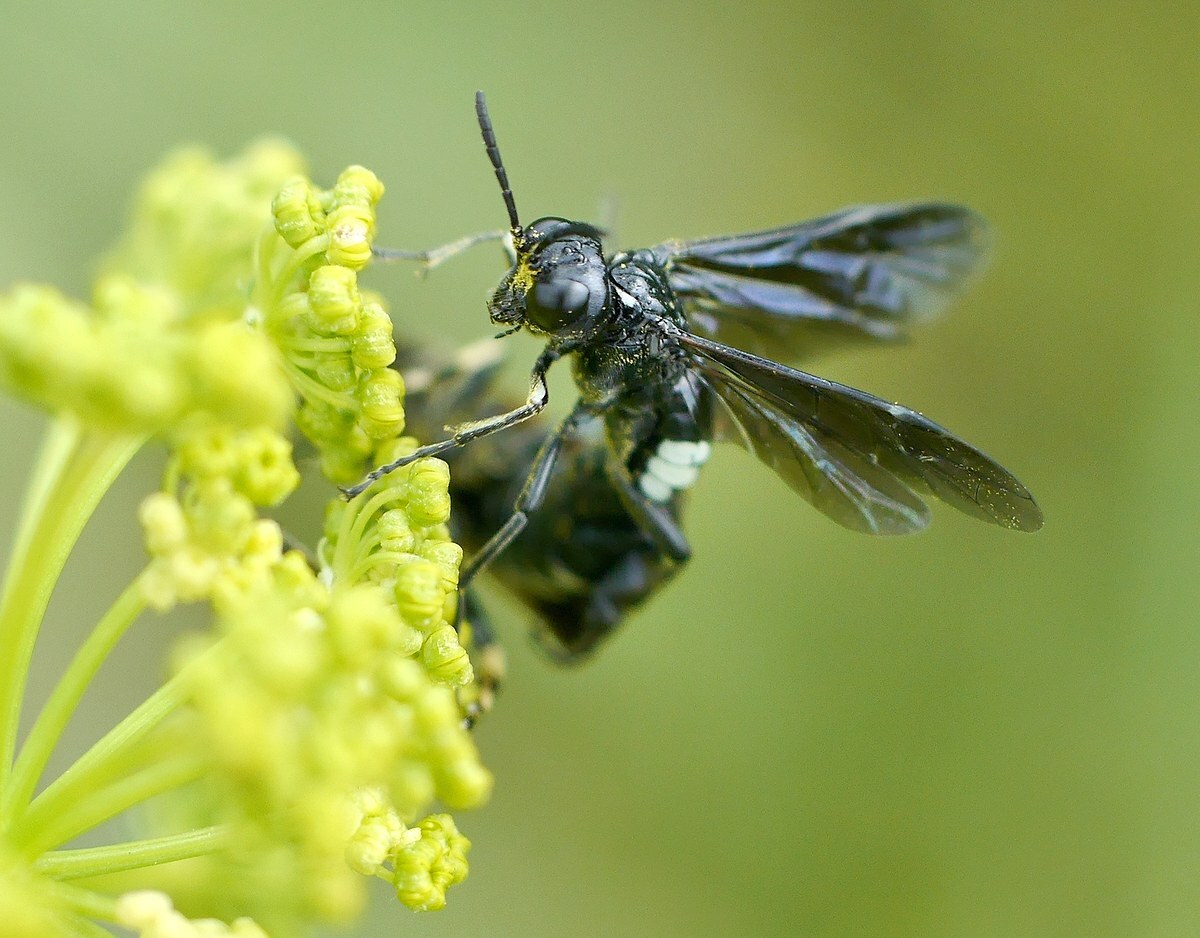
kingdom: Animalia
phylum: Arthropoda
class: Insecta
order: Hymenoptera
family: Tenthredinidae
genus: Tenthredo
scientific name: Tenthredo costata
